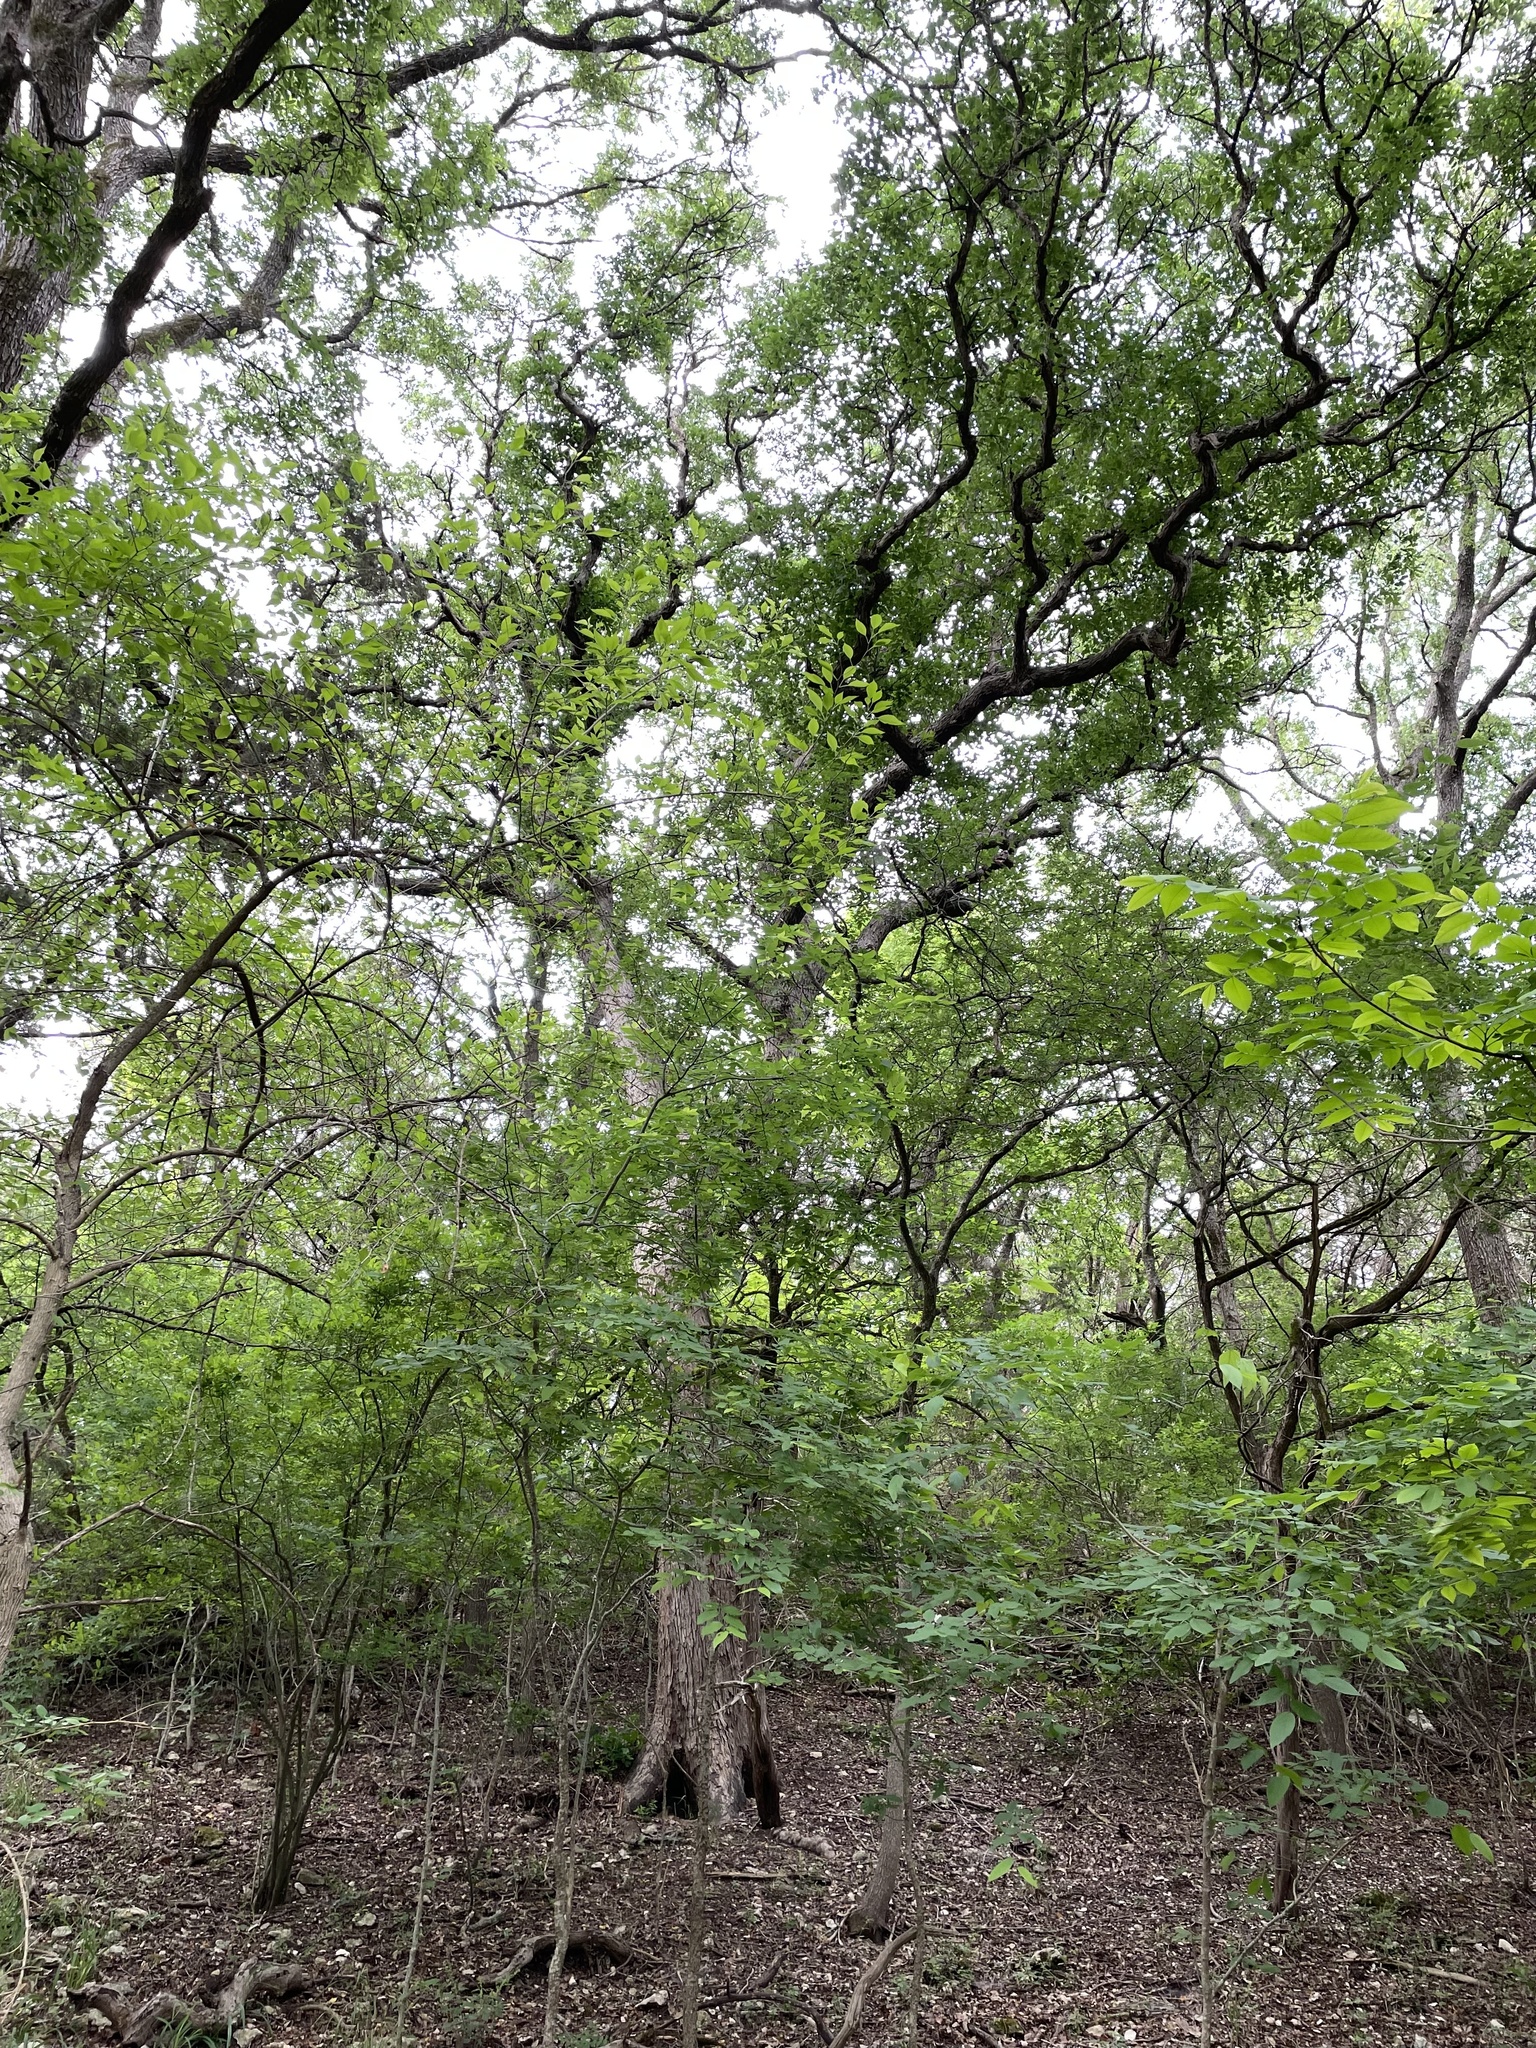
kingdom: Plantae
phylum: Tracheophyta
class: Magnoliopsida
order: Fagales
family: Fagaceae
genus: Quercus
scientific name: Quercus sinuata
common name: Durand oak
